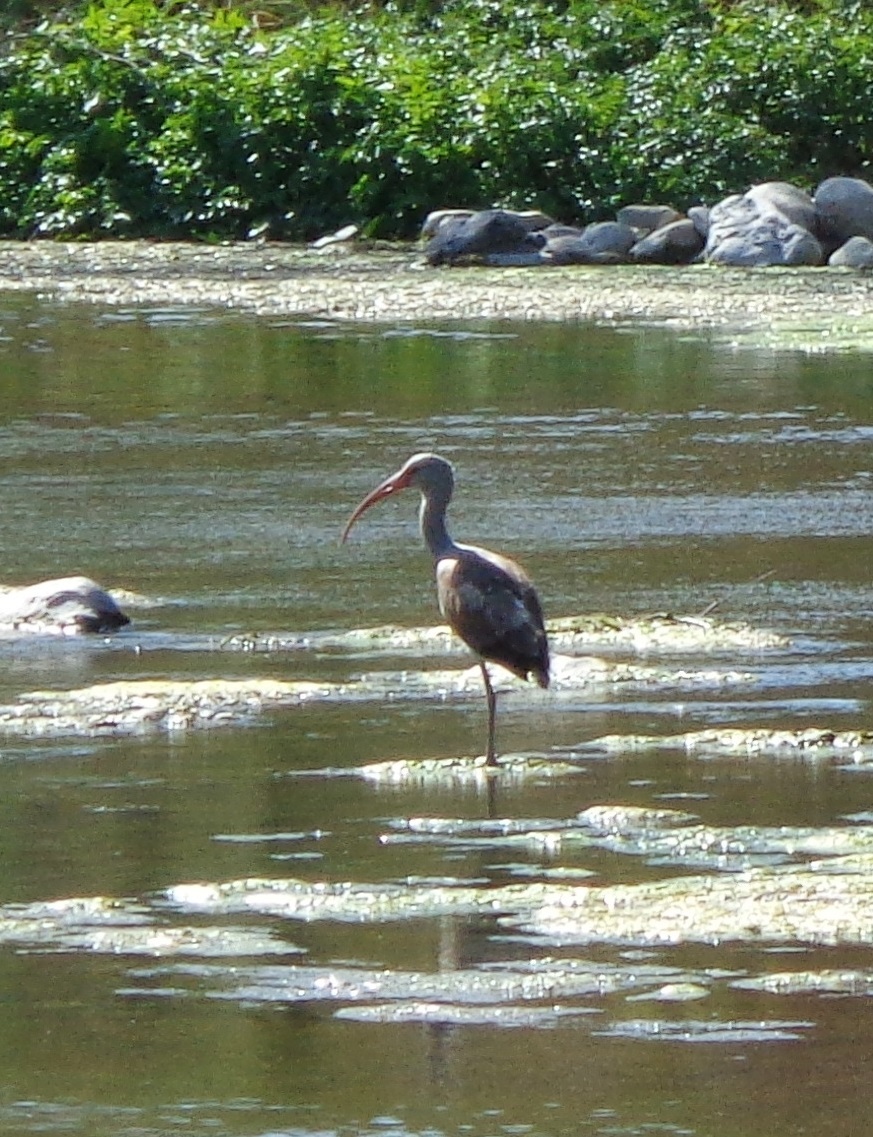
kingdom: Animalia
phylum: Chordata
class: Aves
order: Pelecaniformes
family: Threskiornithidae
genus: Eudocimus
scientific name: Eudocimus albus
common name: White ibis
